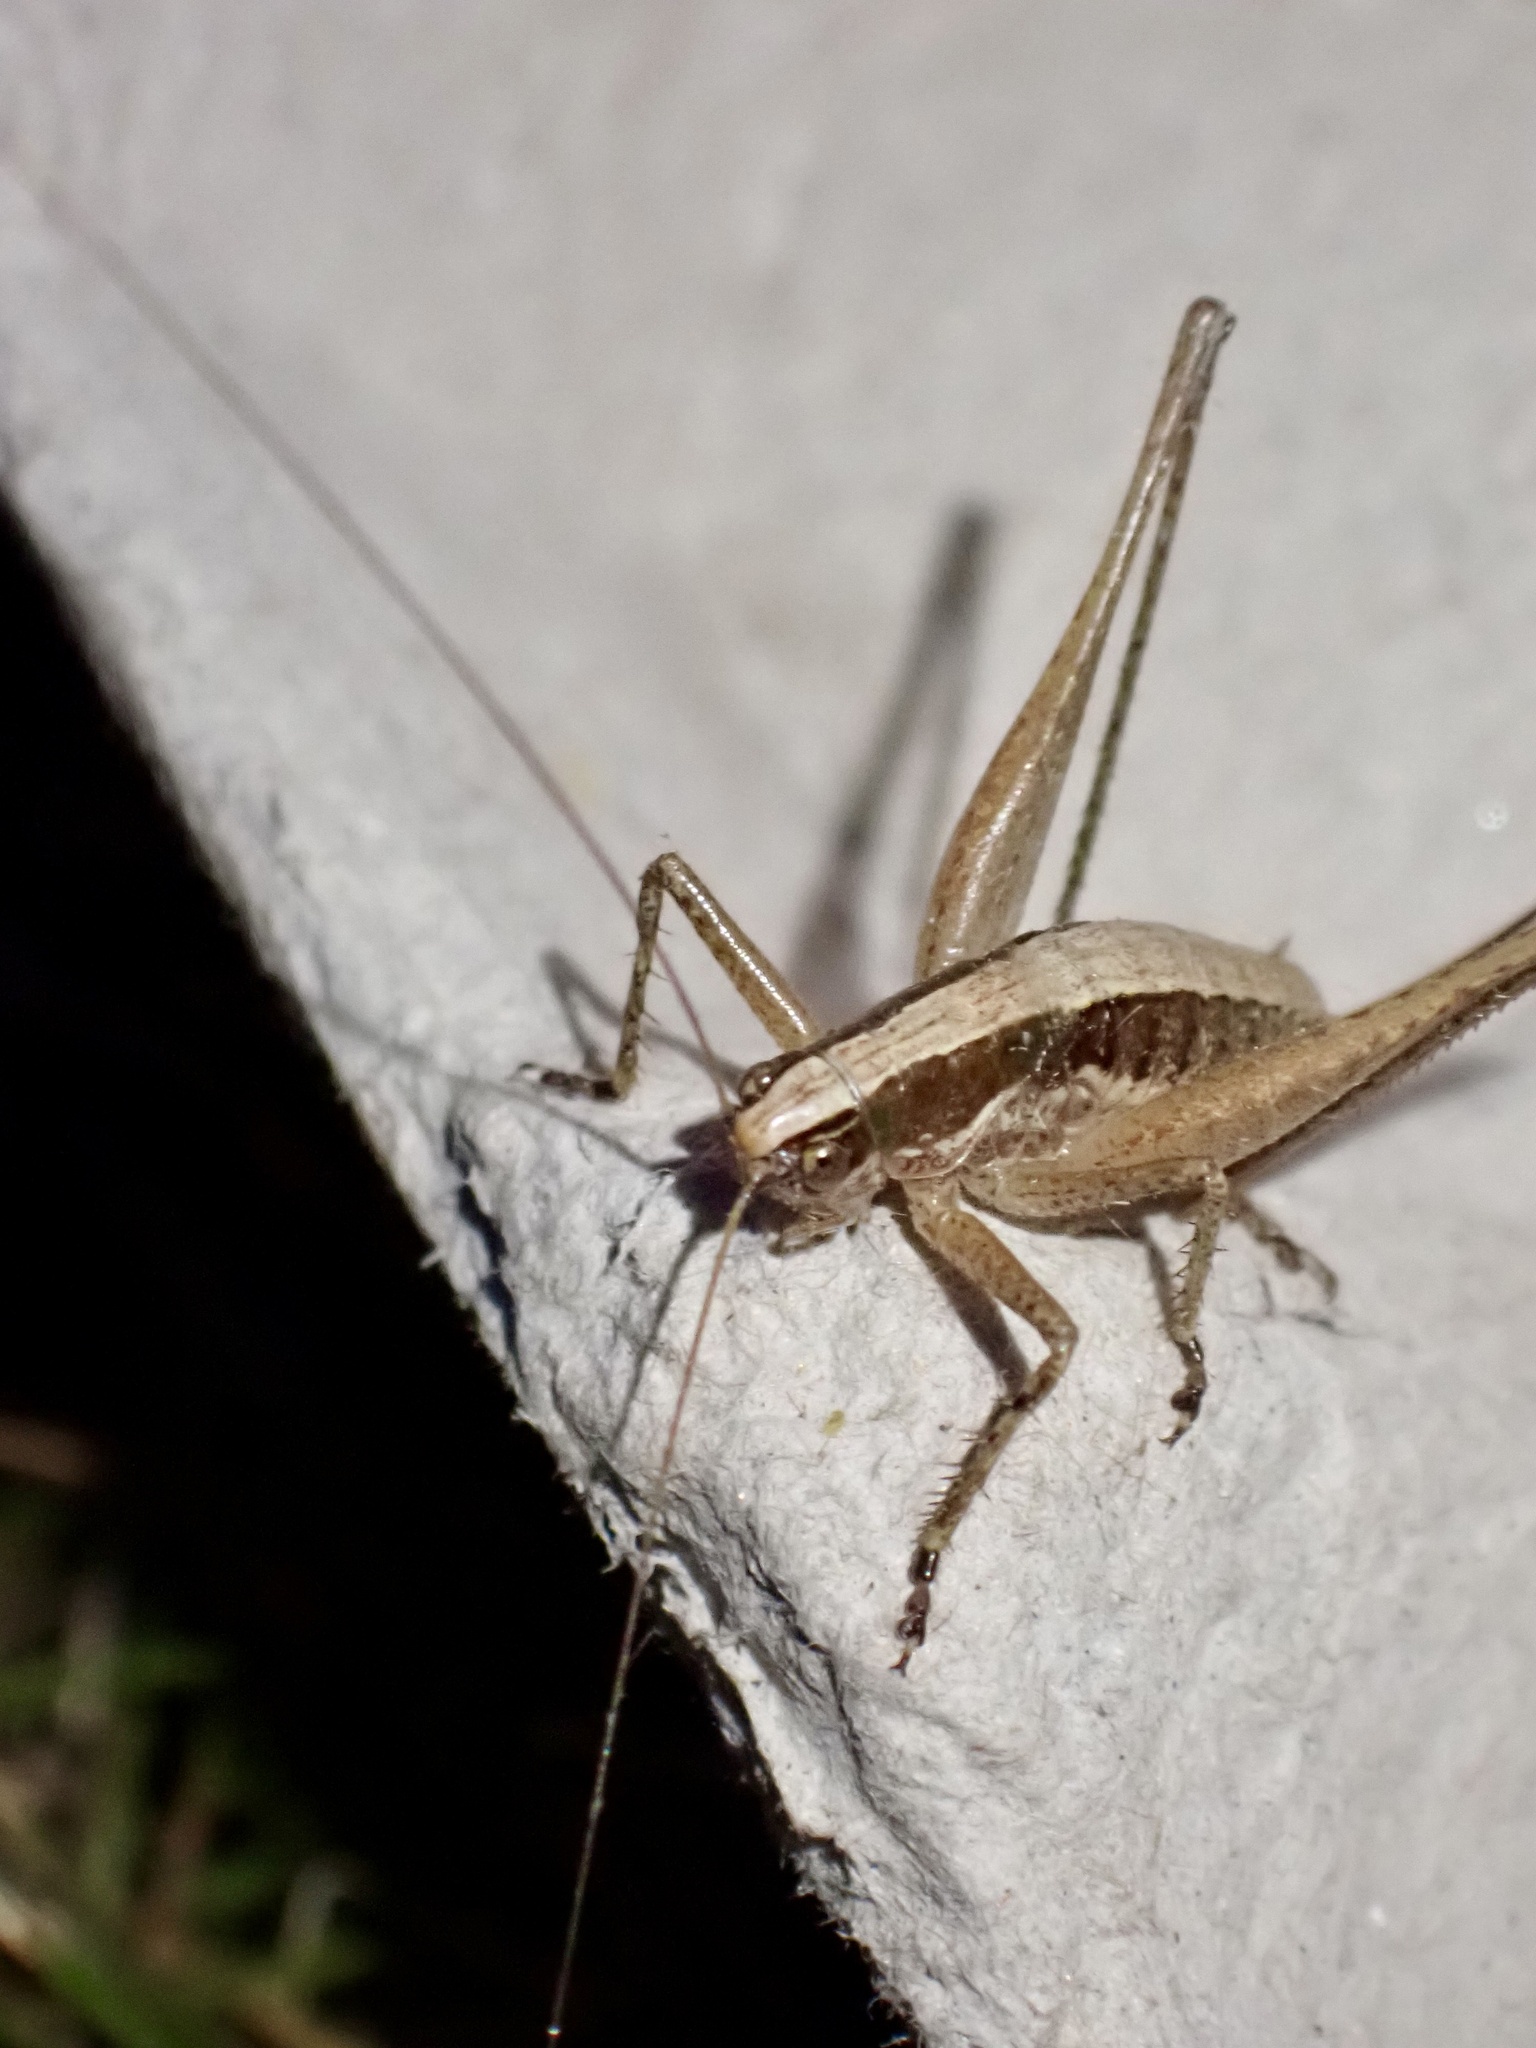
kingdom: Animalia
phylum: Arthropoda
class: Insecta
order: Orthoptera
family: Tettigoniidae
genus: Yersinella
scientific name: Yersinella raymondii
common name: Raymond's bush-cricket
